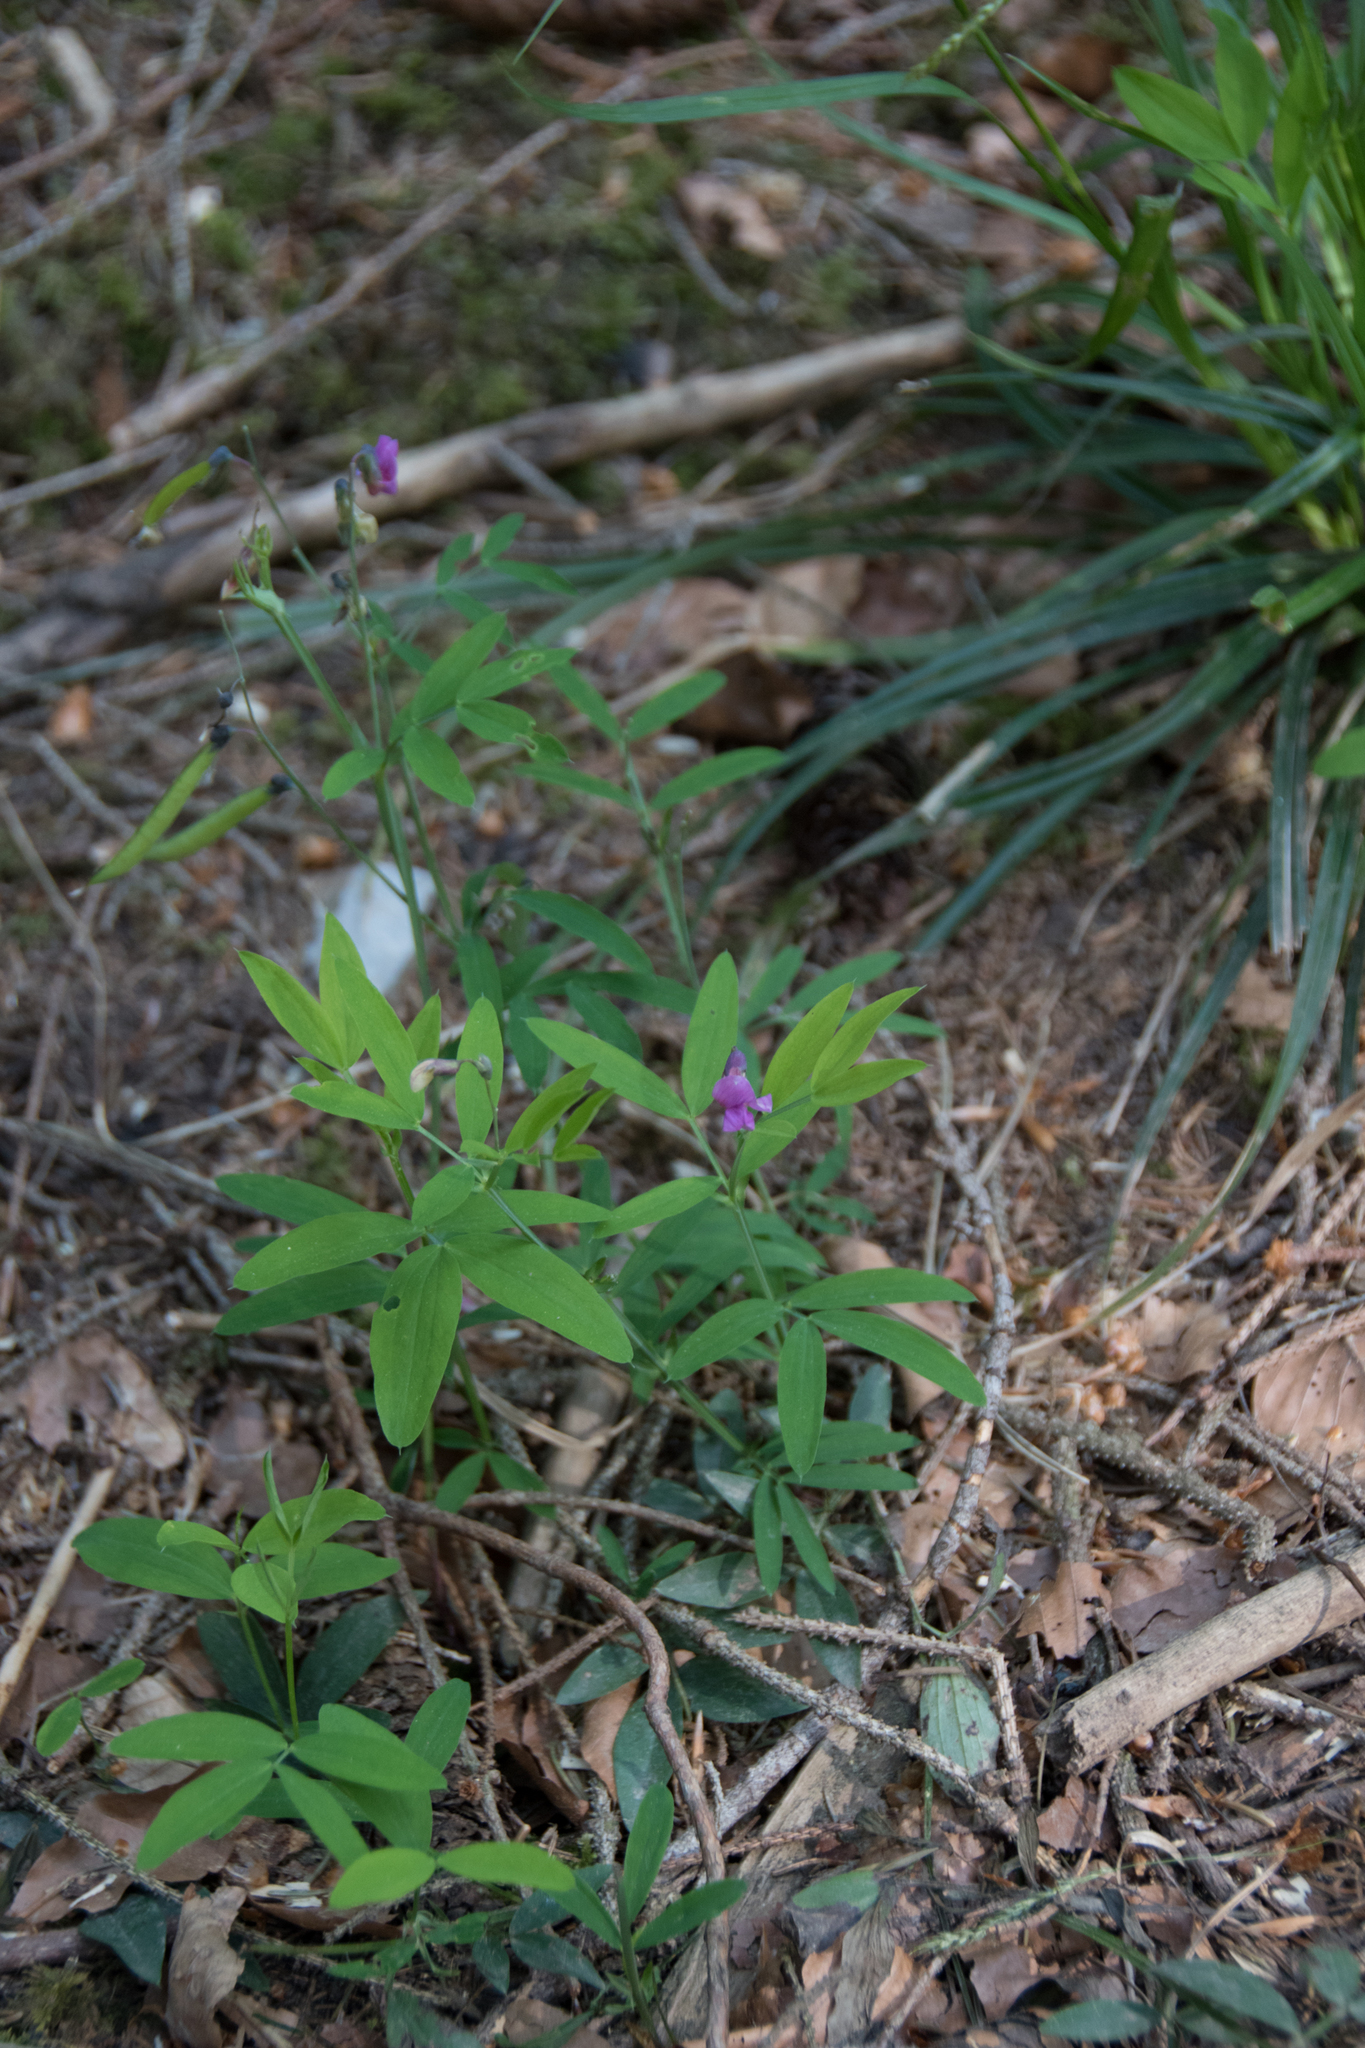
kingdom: Plantae
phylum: Tracheophyta
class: Magnoliopsida
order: Fabales
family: Fabaceae
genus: Lathyrus
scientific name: Lathyrus linifolius
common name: Bitter-vetch
